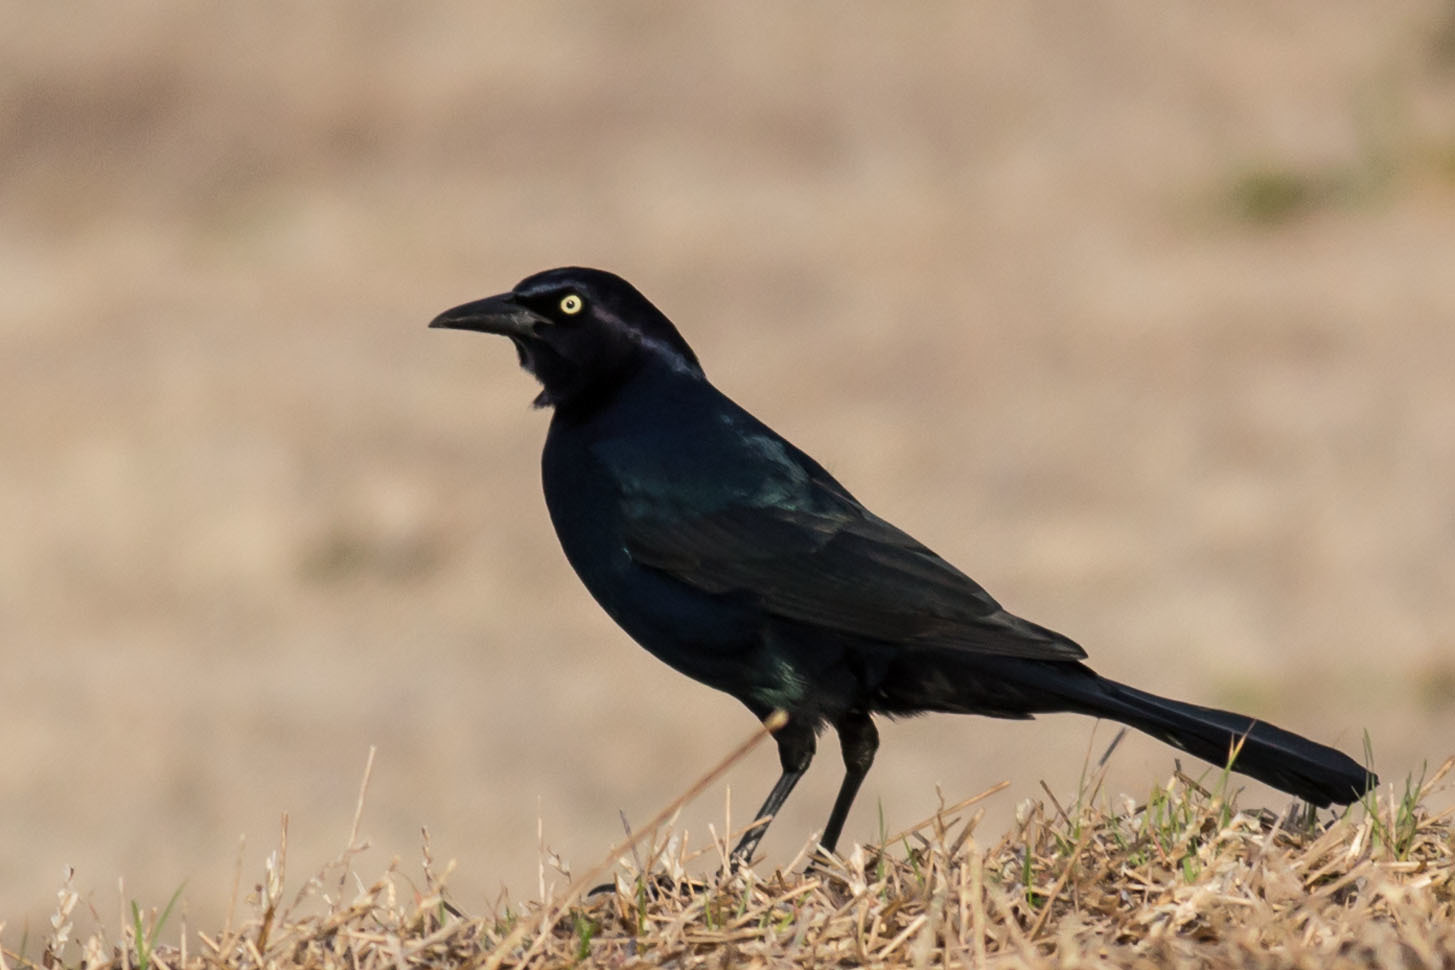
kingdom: Animalia
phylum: Chordata
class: Aves
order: Passeriformes
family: Icteridae
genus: Quiscalus
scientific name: Quiscalus major
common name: Boat-tailed grackle
